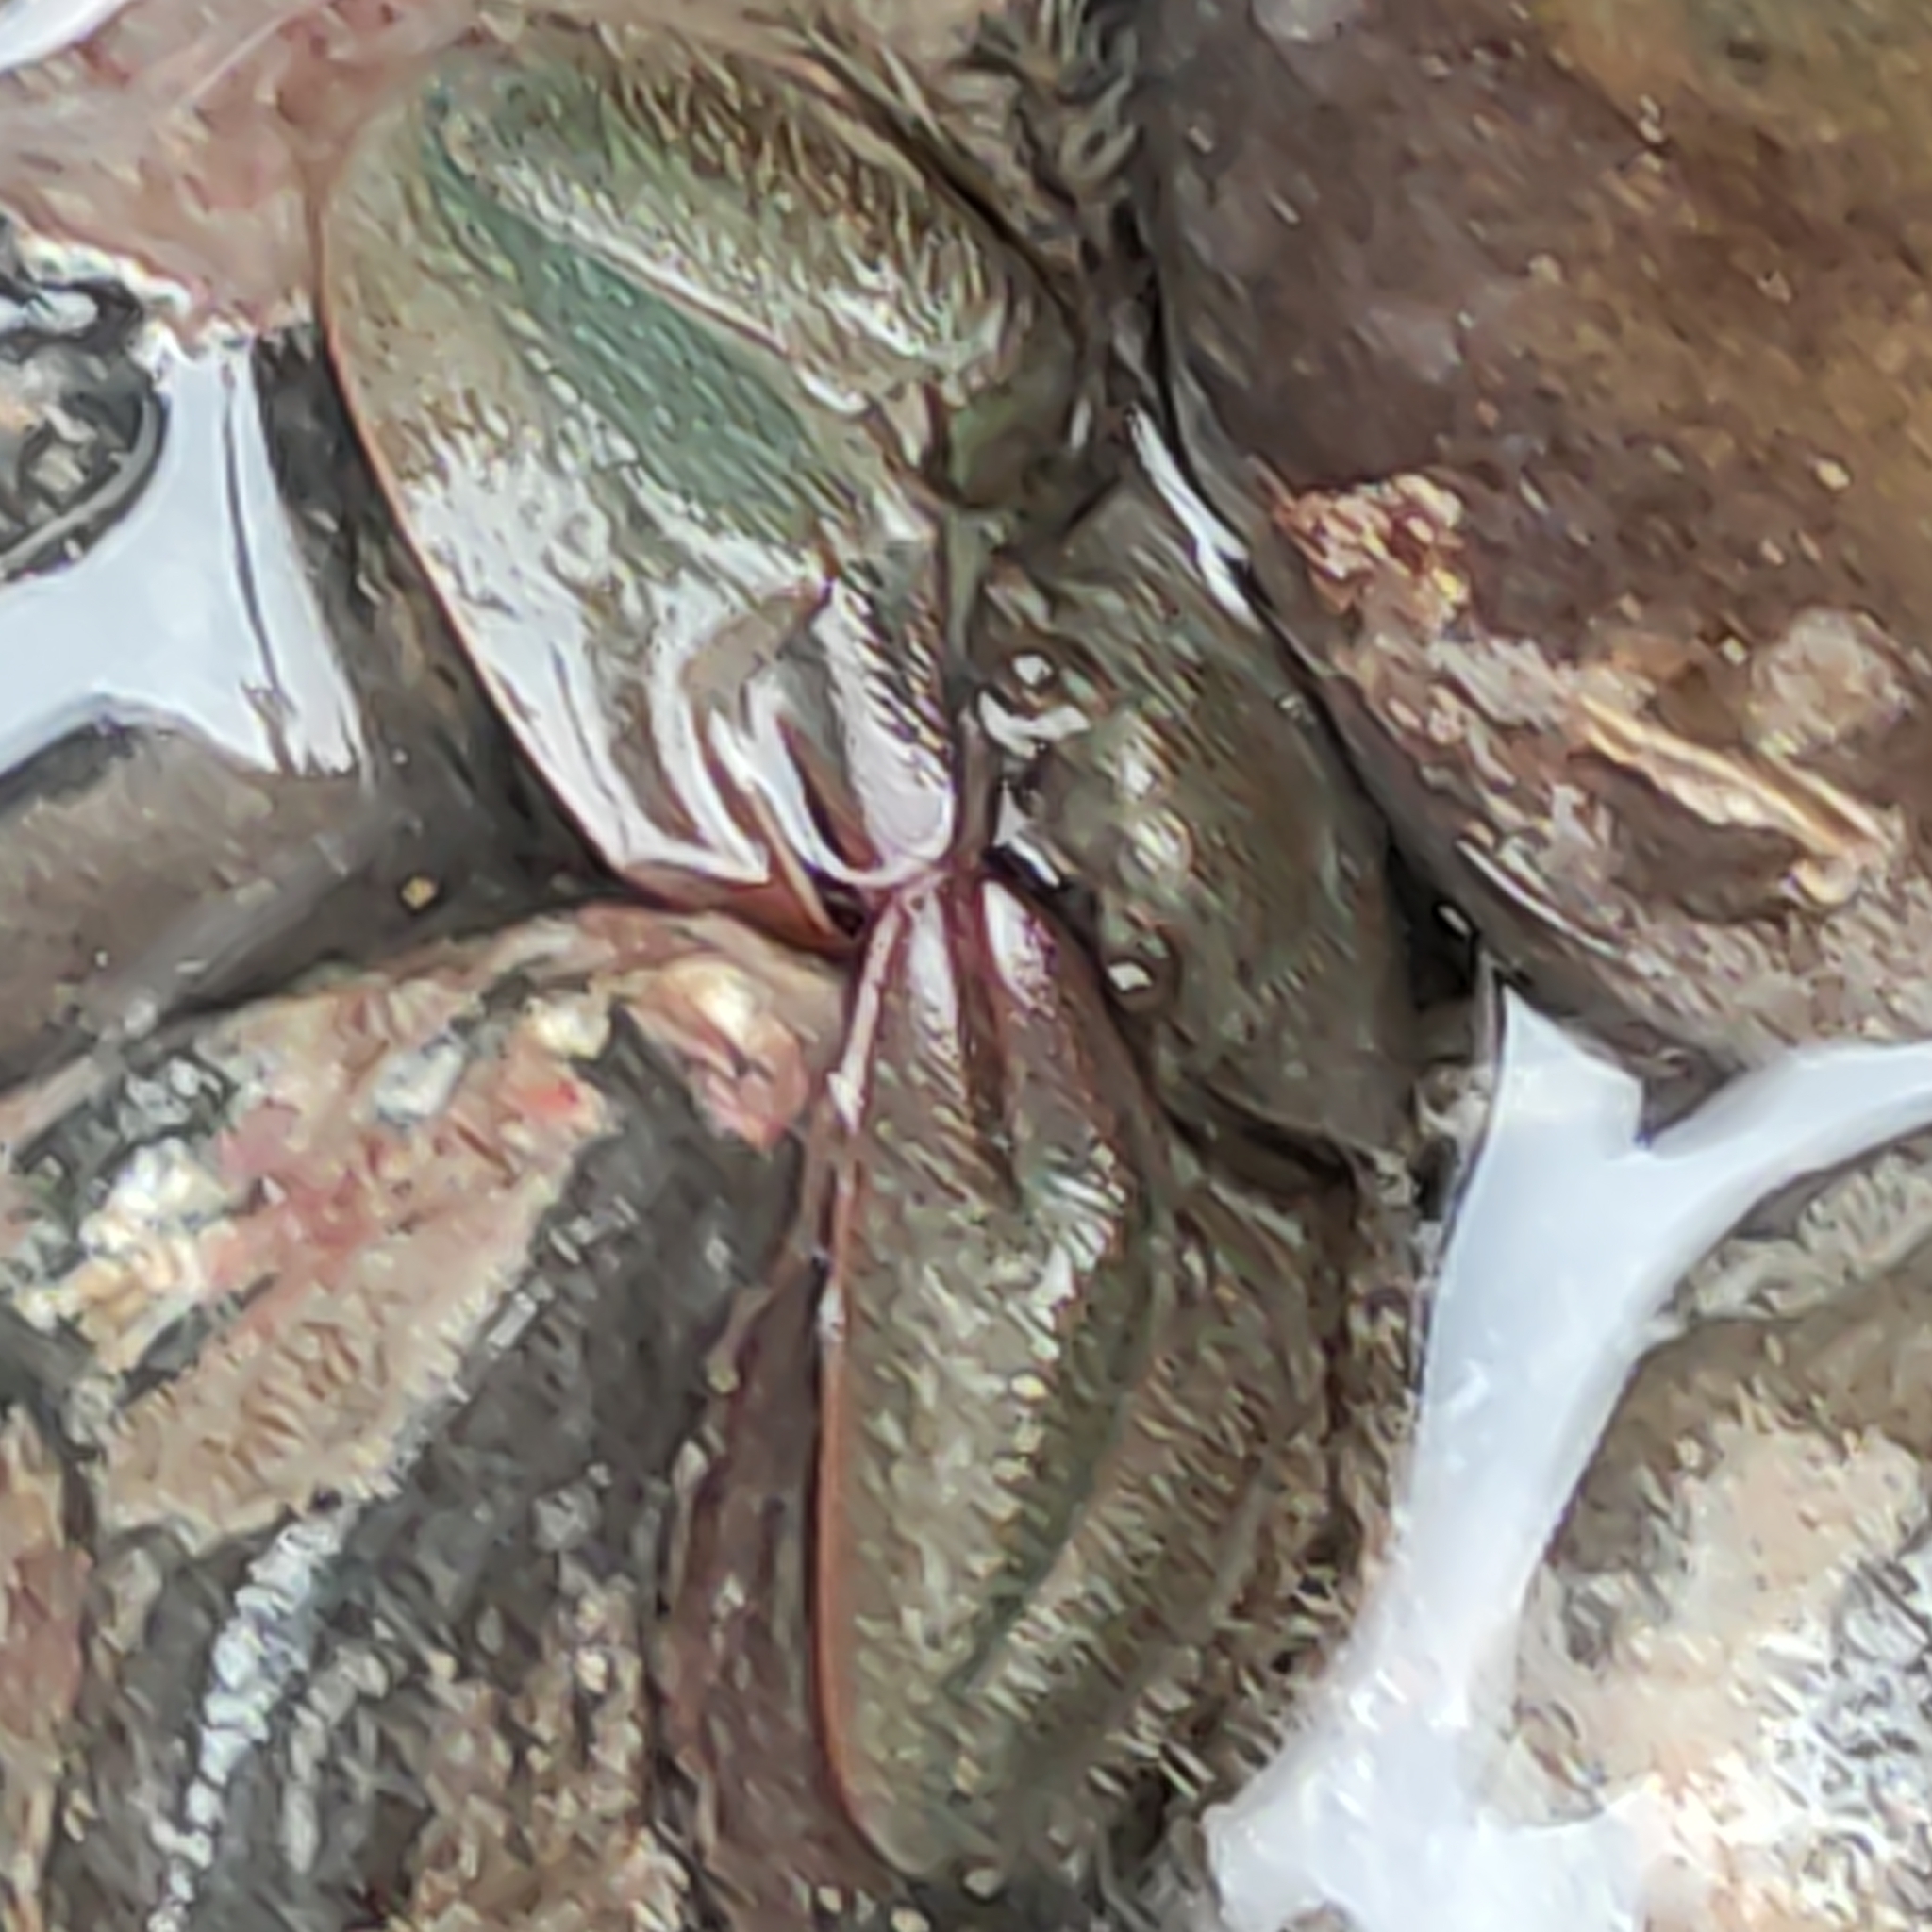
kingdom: Animalia
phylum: Arthropoda
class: Malacostraca
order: Decapoda
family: Porcellanidae
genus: Petrolisthes
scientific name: Petrolisthes elongatus
